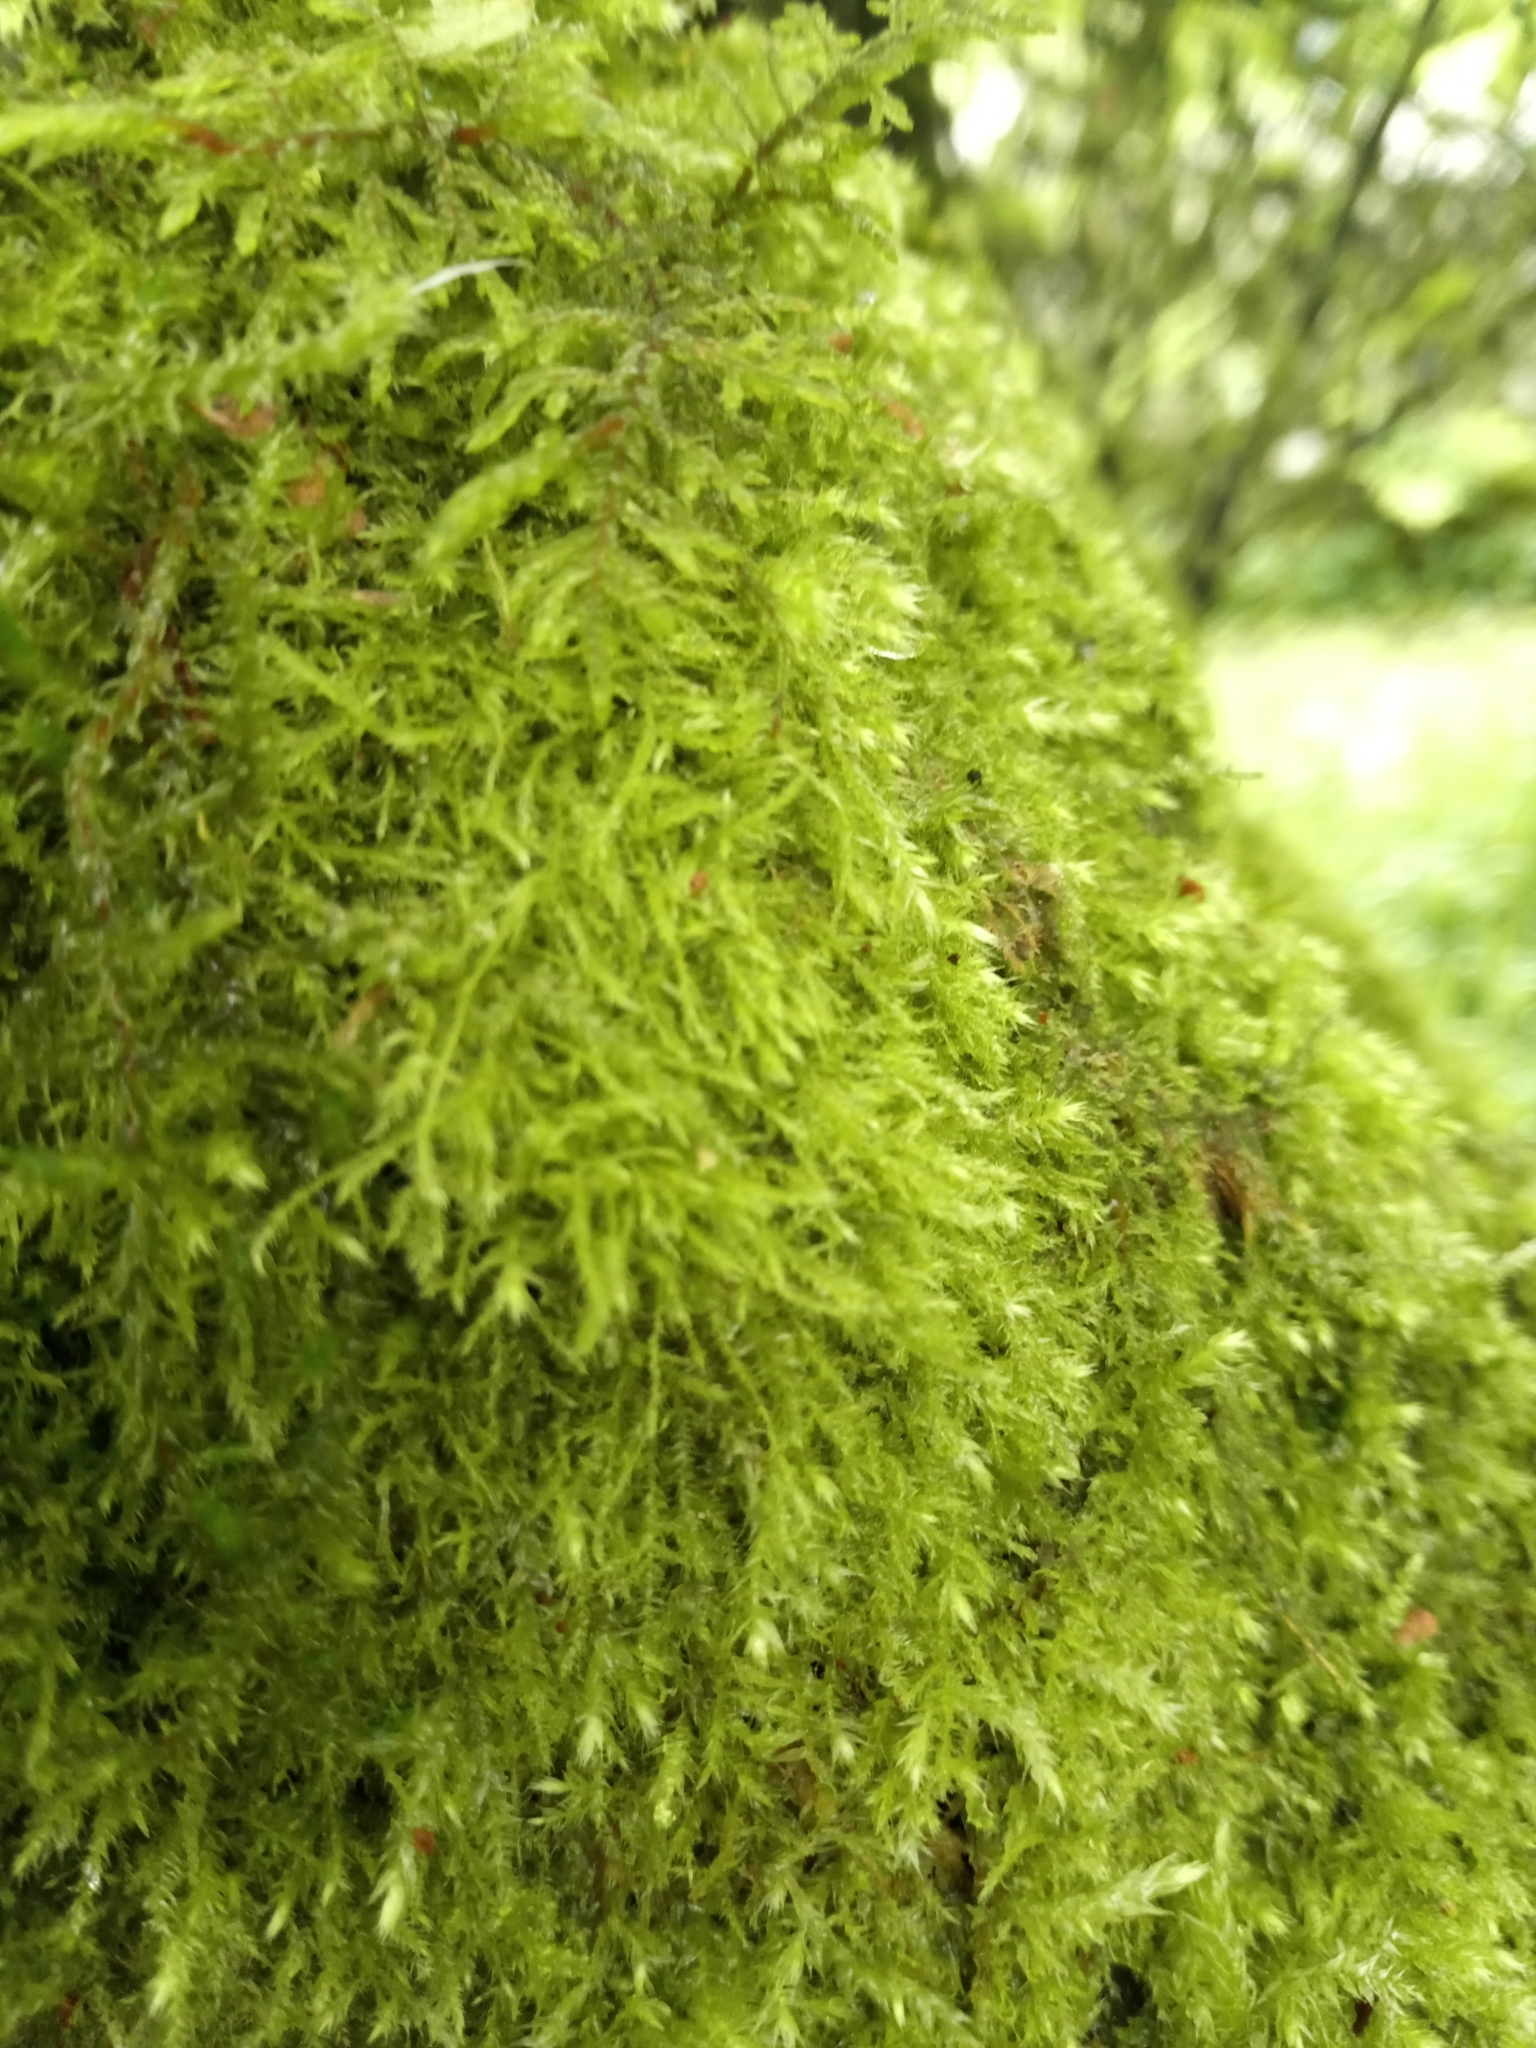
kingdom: Plantae
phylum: Bryophyta
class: Bryopsida
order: Hypnales
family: Amblystegiaceae
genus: Amblystegium
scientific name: Amblystegium serpens
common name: Jurkatzka's feather moss
